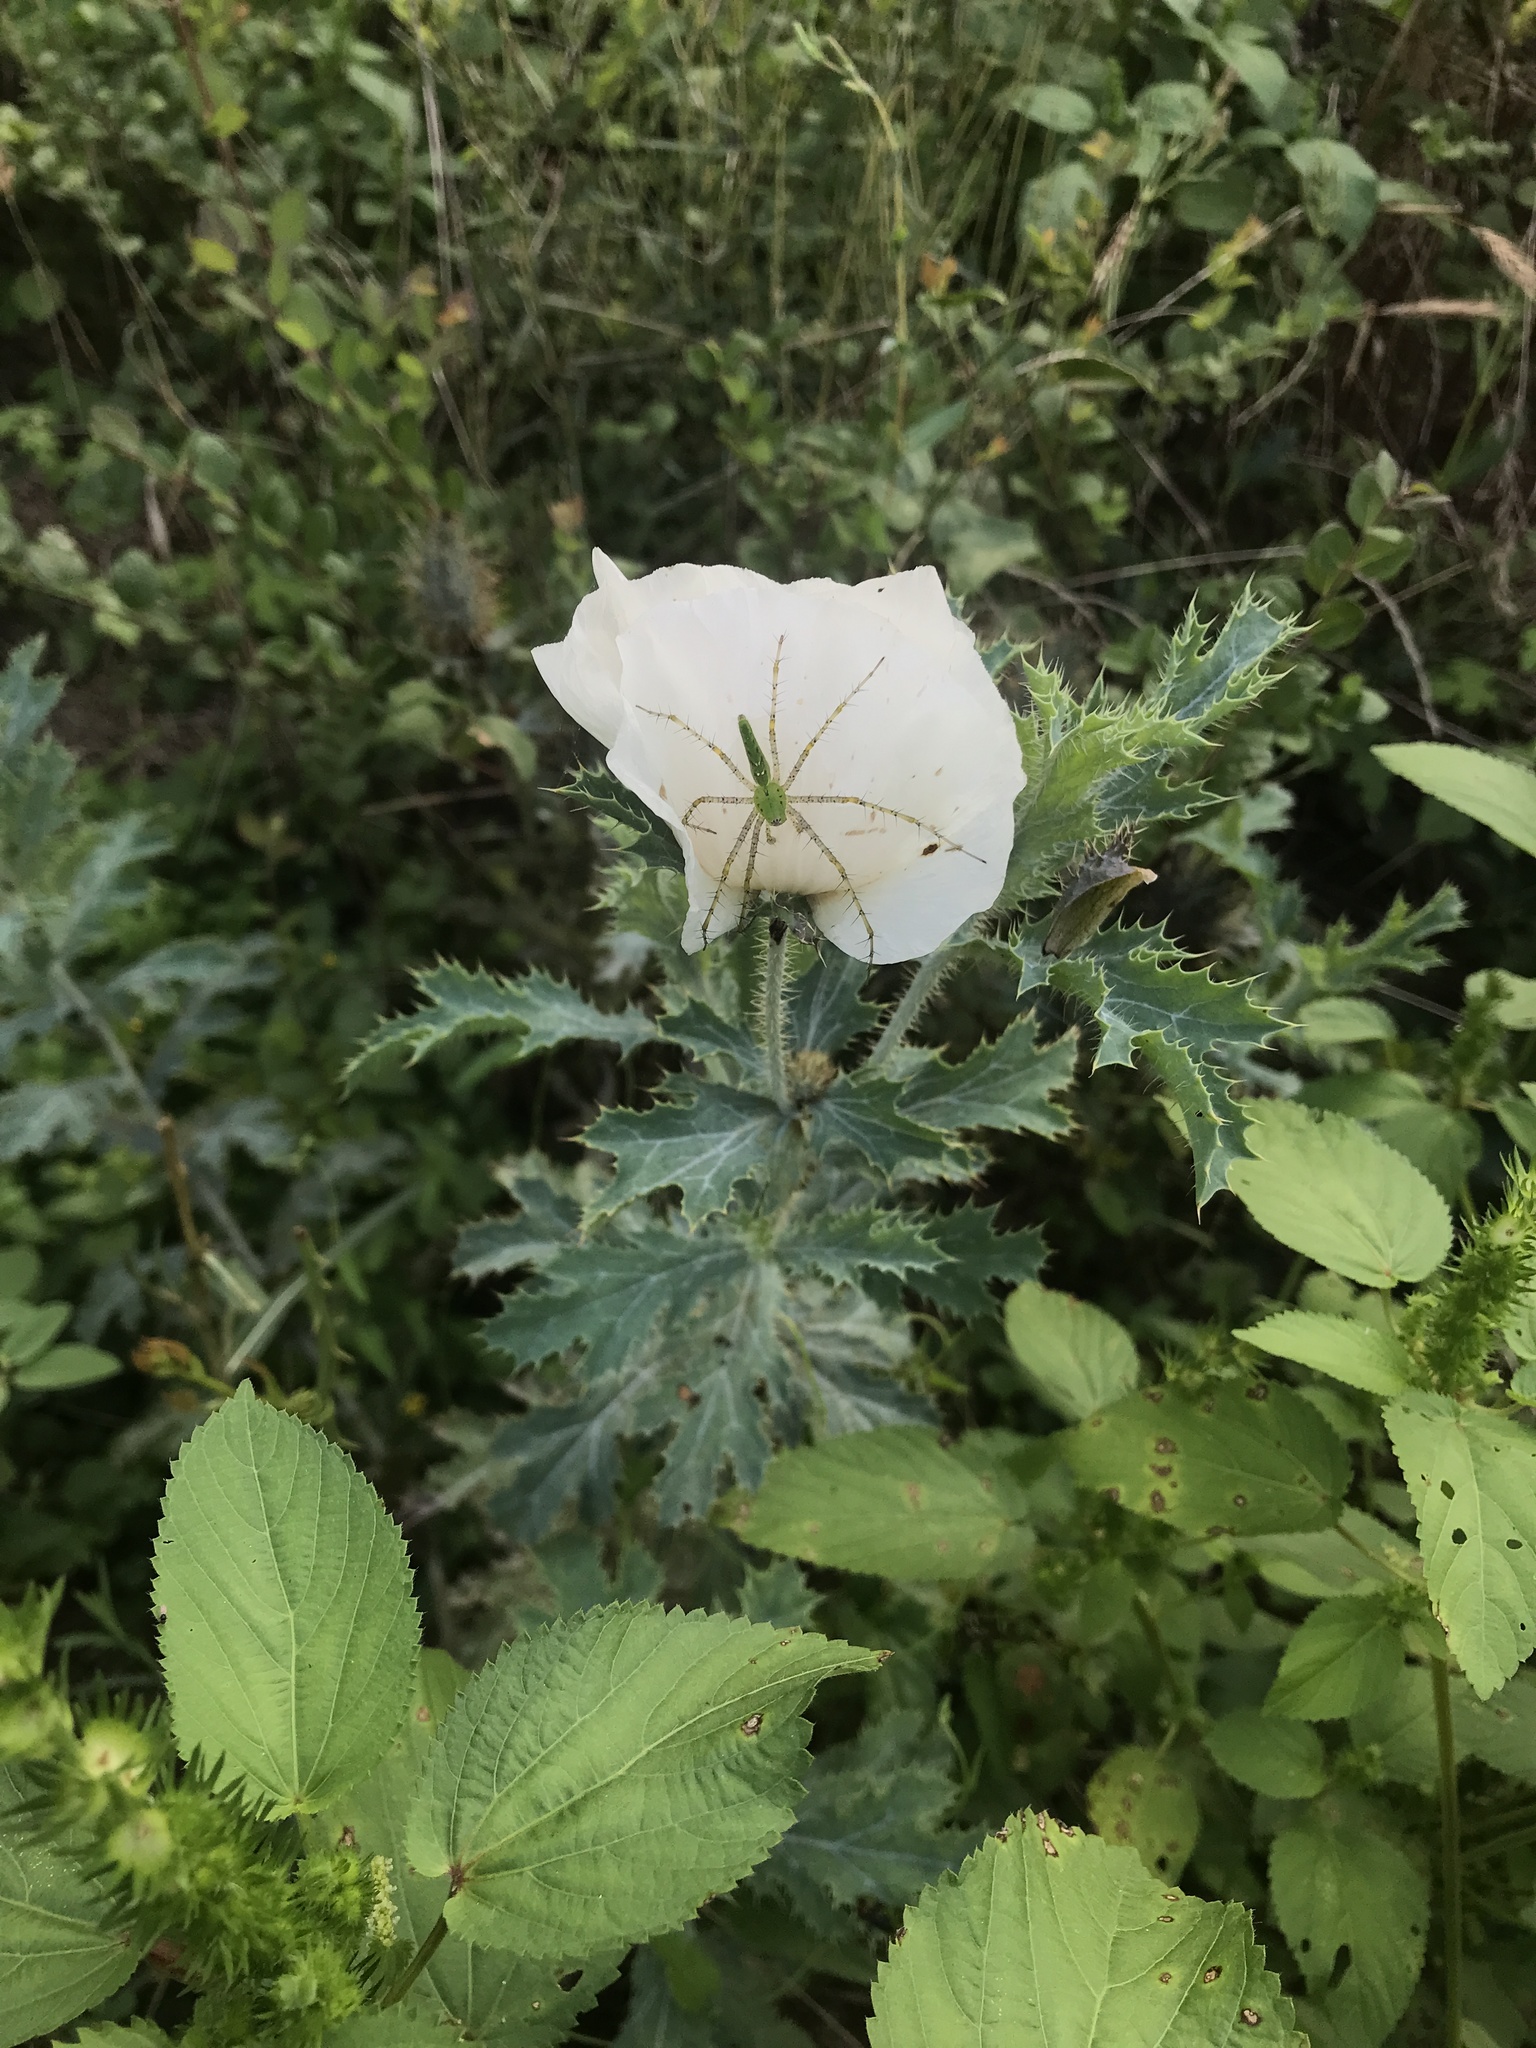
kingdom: Animalia
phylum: Arthropoda
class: Arachnida
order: Araneae
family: Oxyopidae
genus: Peucetia
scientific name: Peucetia viridans
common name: Lynx spiders
